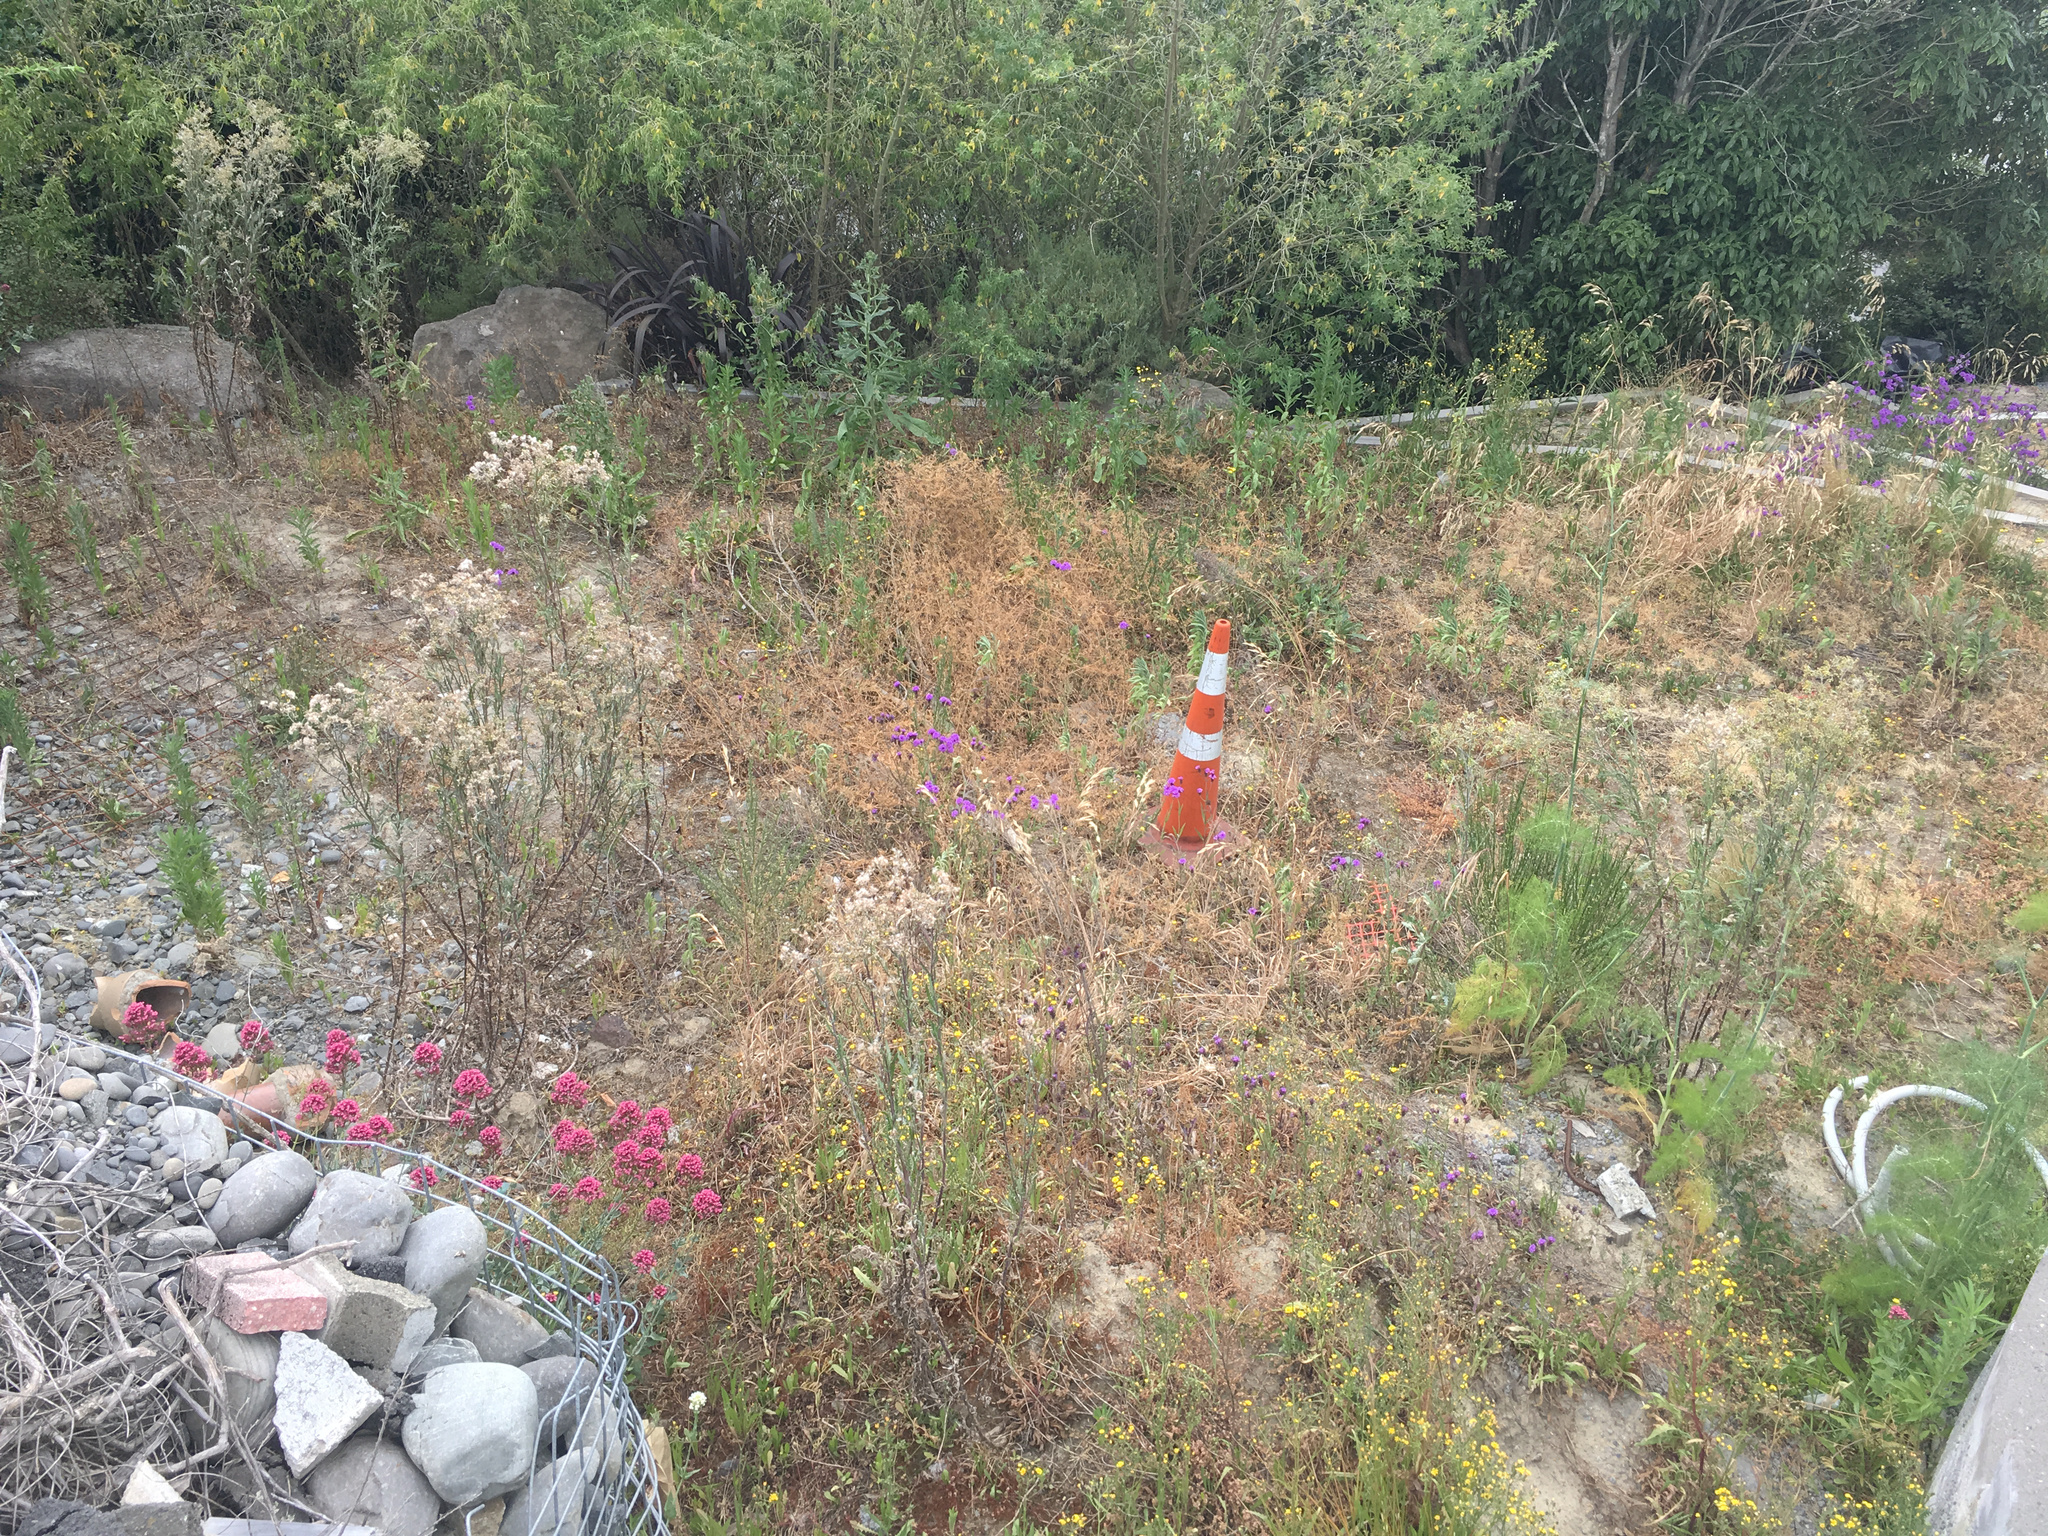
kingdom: Plantae
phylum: Tracheophyta
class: Magnoliopsida
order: Asterales
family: Asteraceae
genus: Senecio
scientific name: Senecio glomeratus
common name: Cutleaf burnweed
